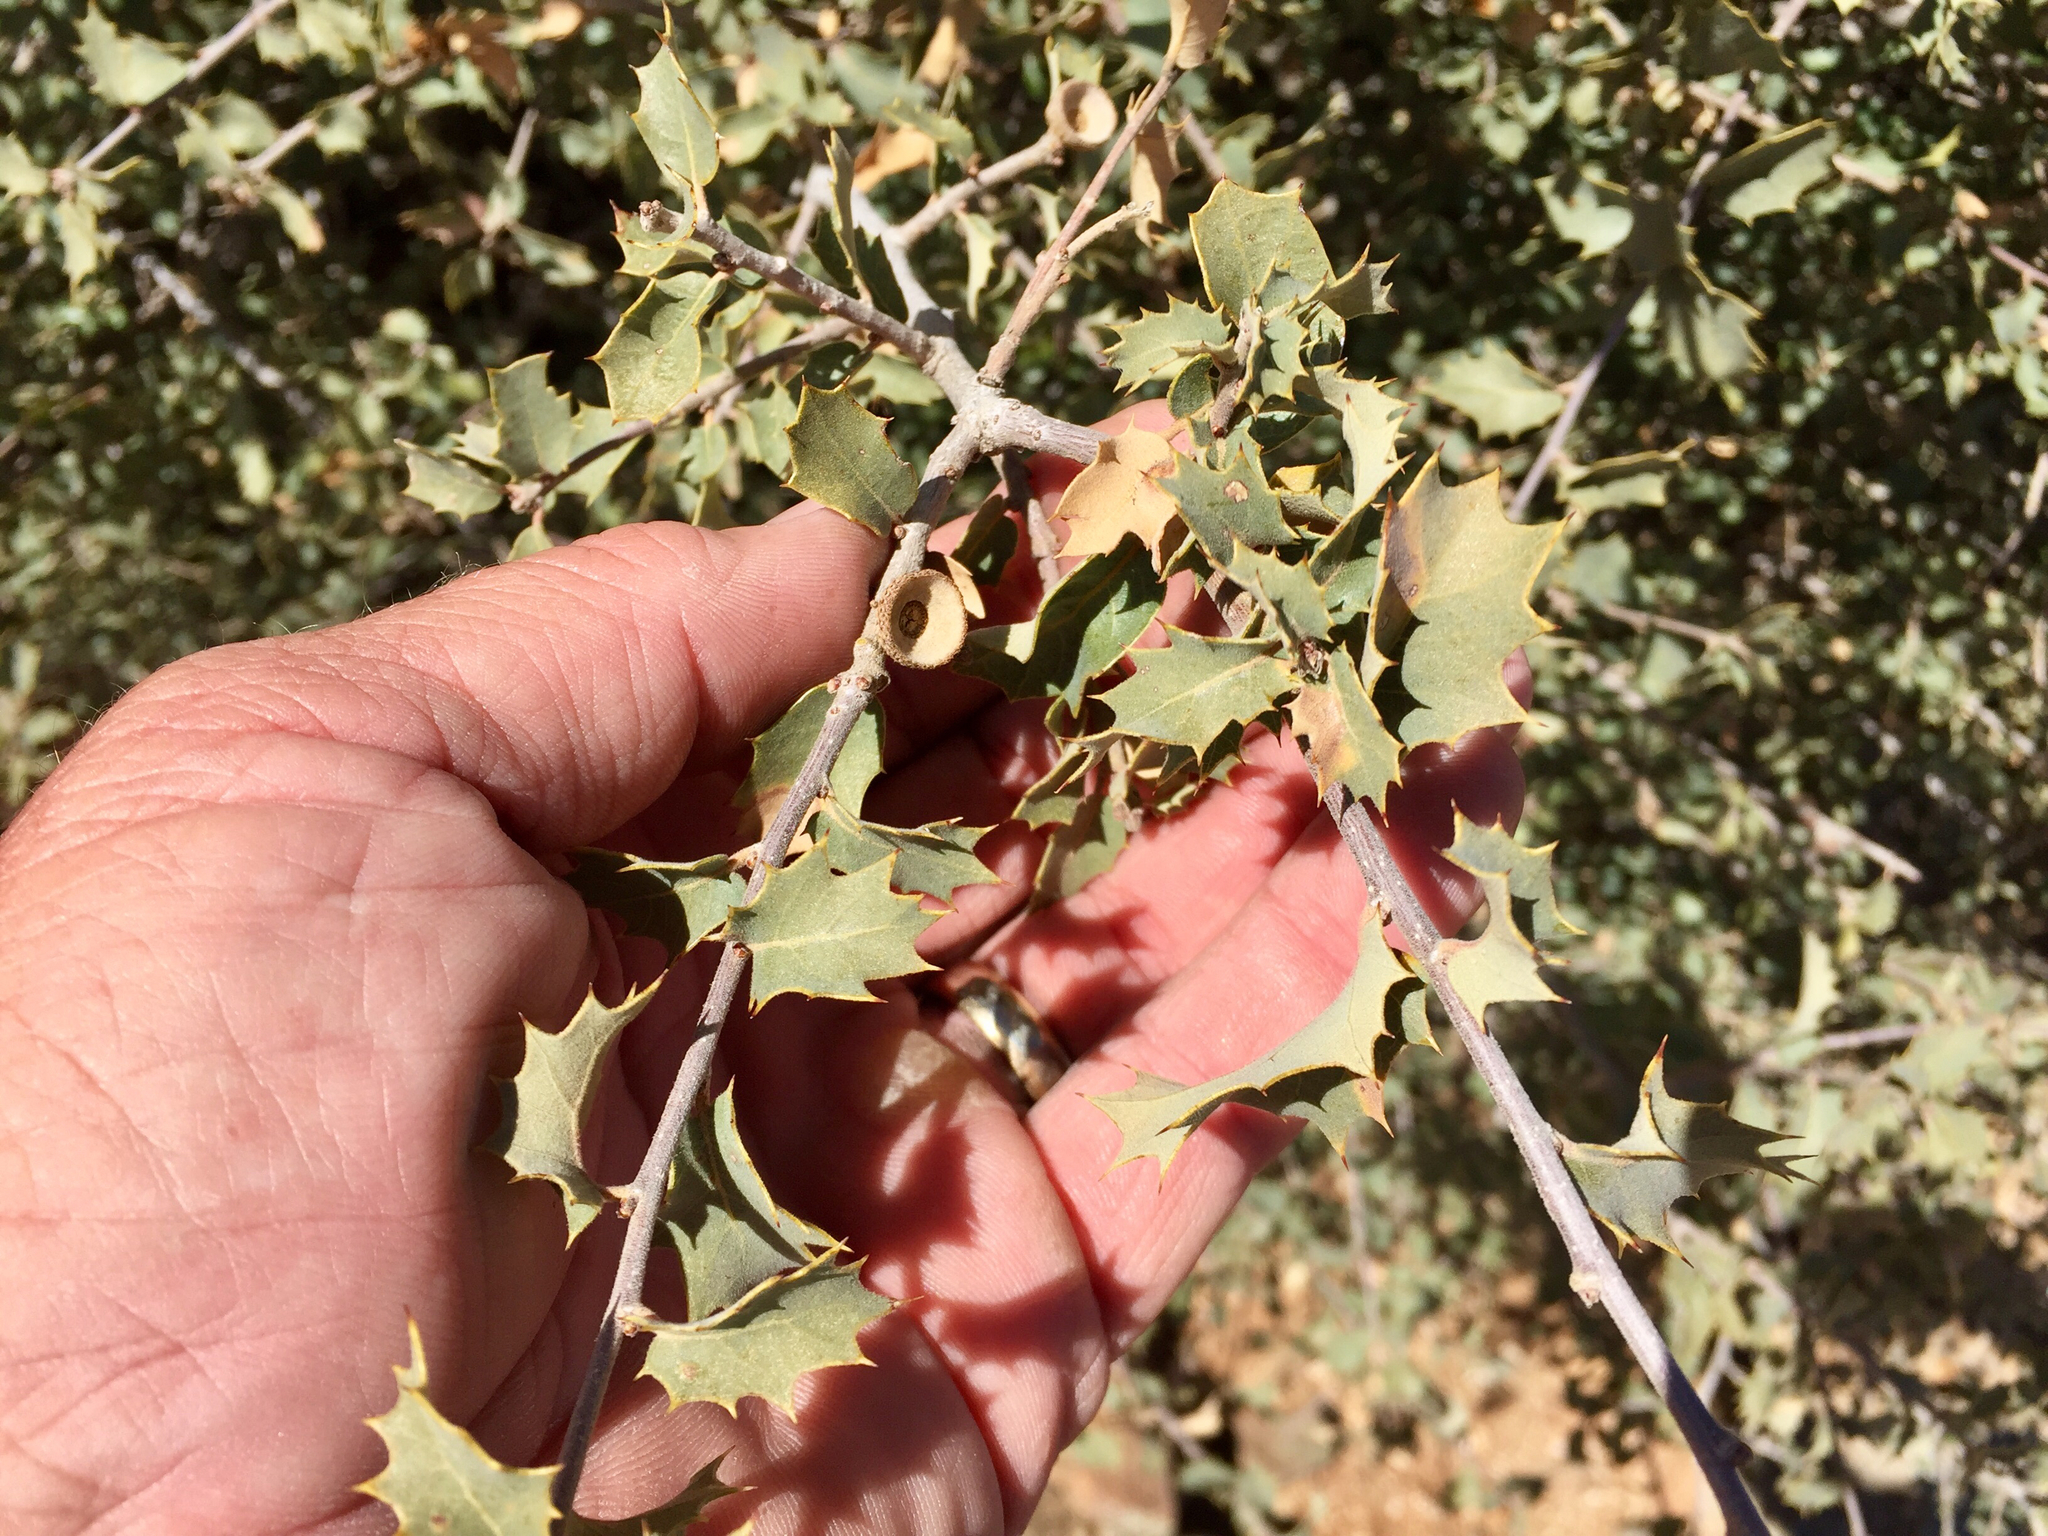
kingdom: Plantae
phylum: Tracheophyta
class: Magnoliopsida
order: Fagales
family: Fagaceae
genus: Quercus
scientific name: Quercus turbinella
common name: Sonoran scrub oak
